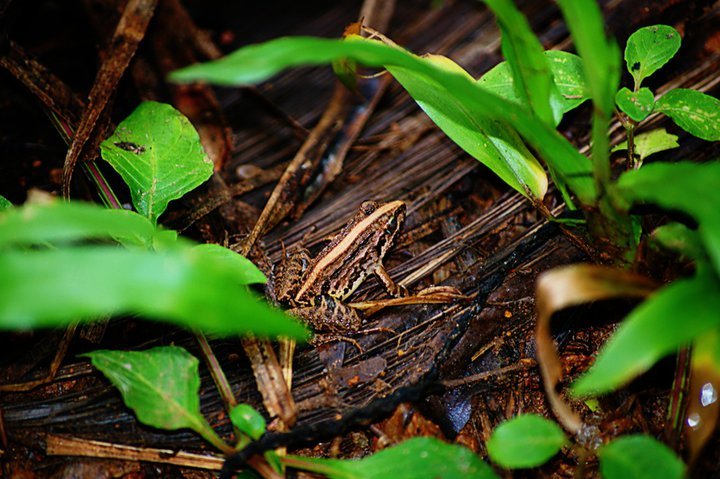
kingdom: Animalia
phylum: Chordata
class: Amphibia
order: Anura
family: Dicroglossidae
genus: Minervarya
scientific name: Minervarya syhadrensis
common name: Bombay wart frog
